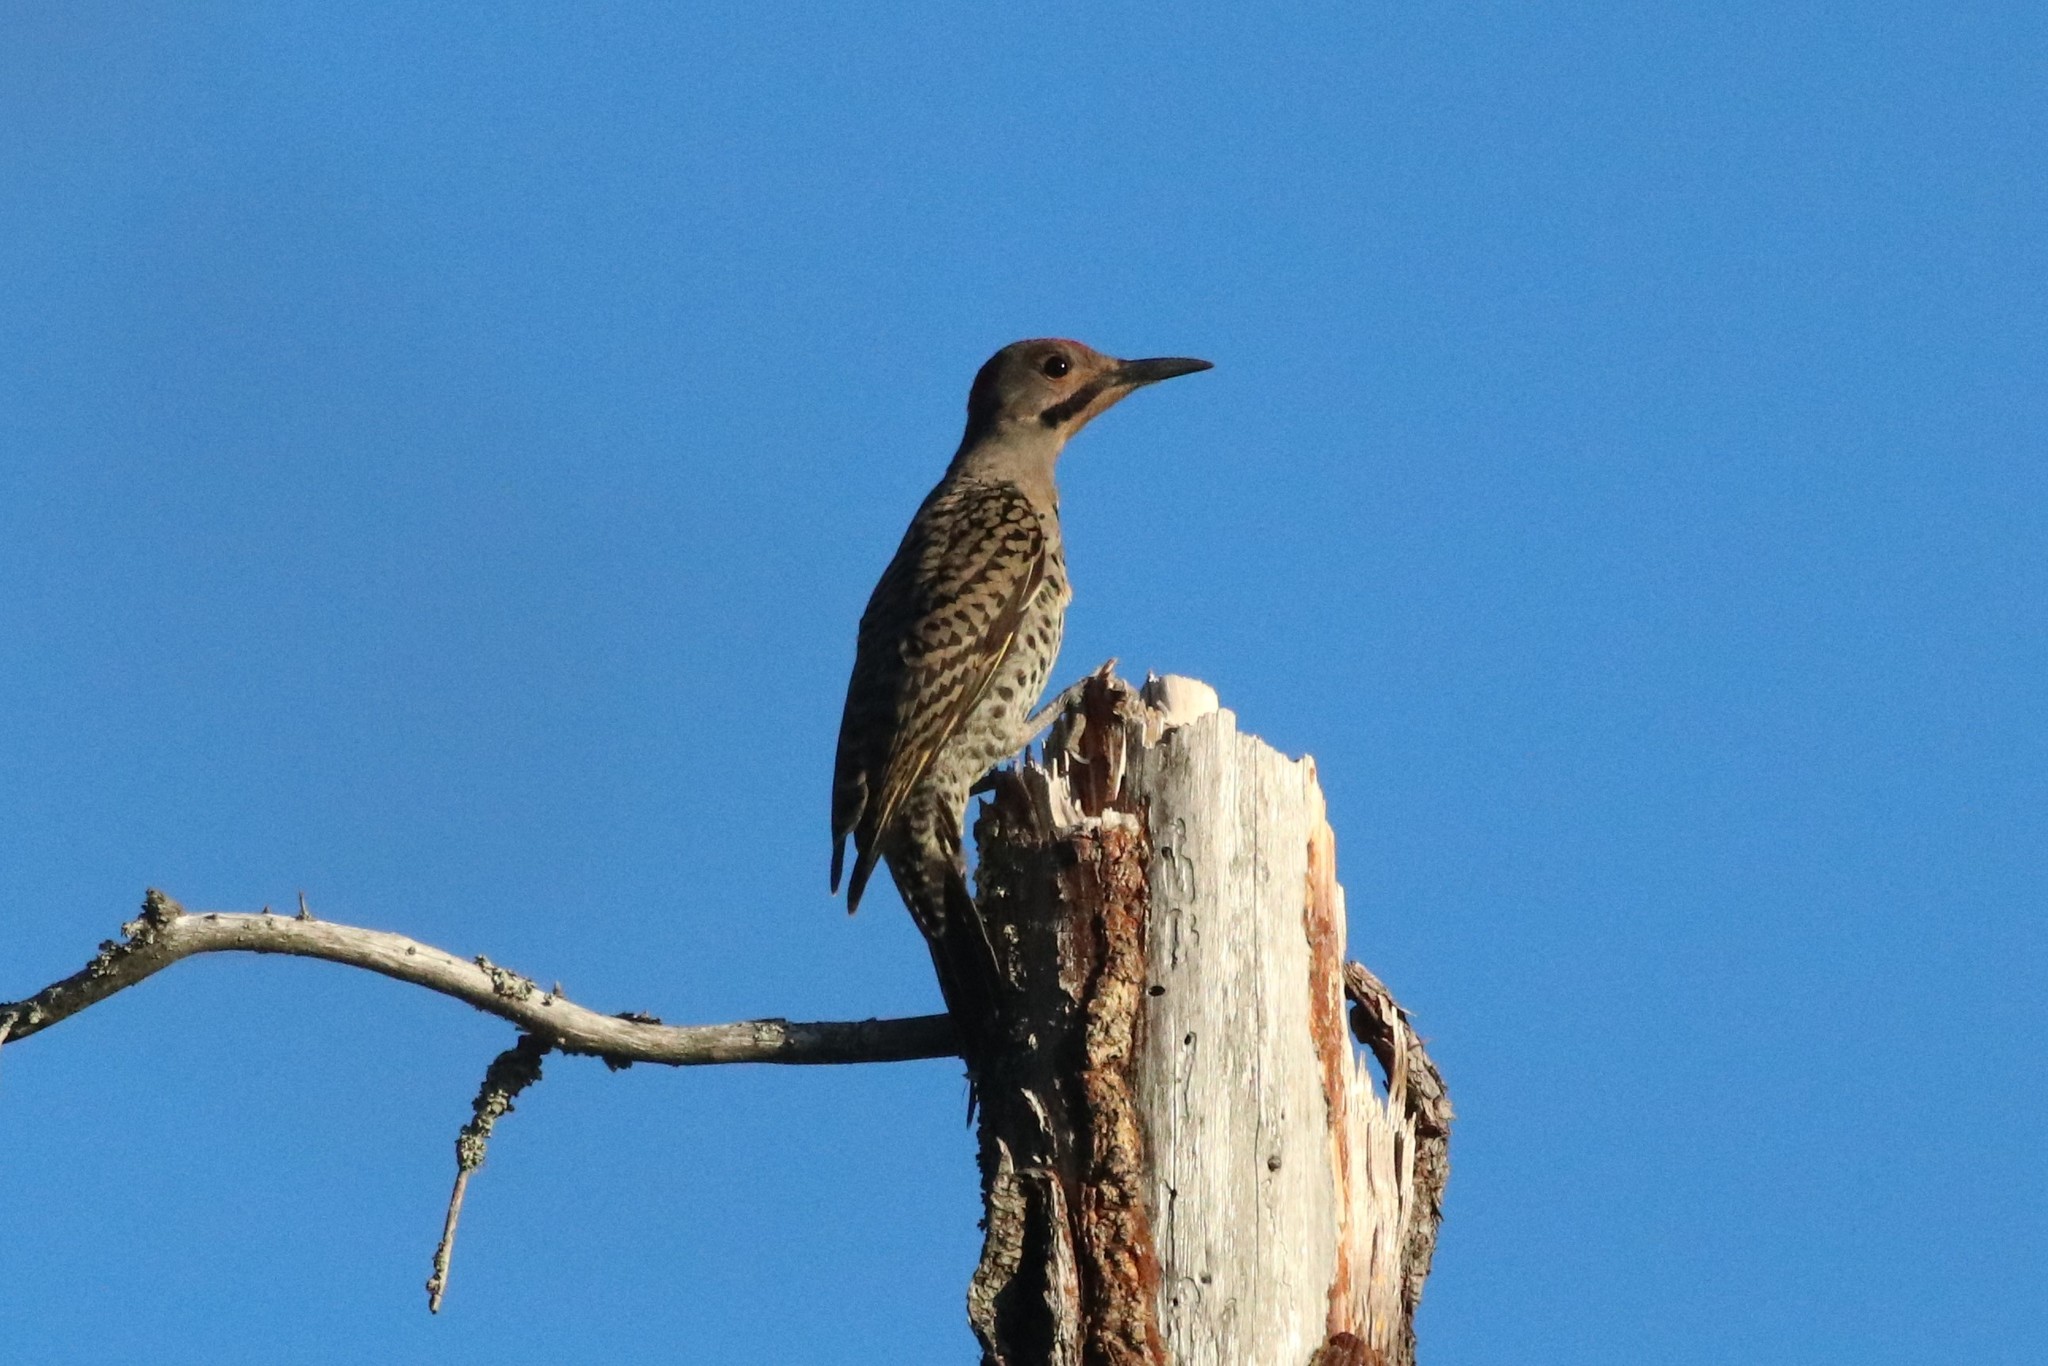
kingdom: Animalia
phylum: Chordata
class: Aves
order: Piciformes
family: Picidae
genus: Colaptes
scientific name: Colaptes auratus
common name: Northern flicker
